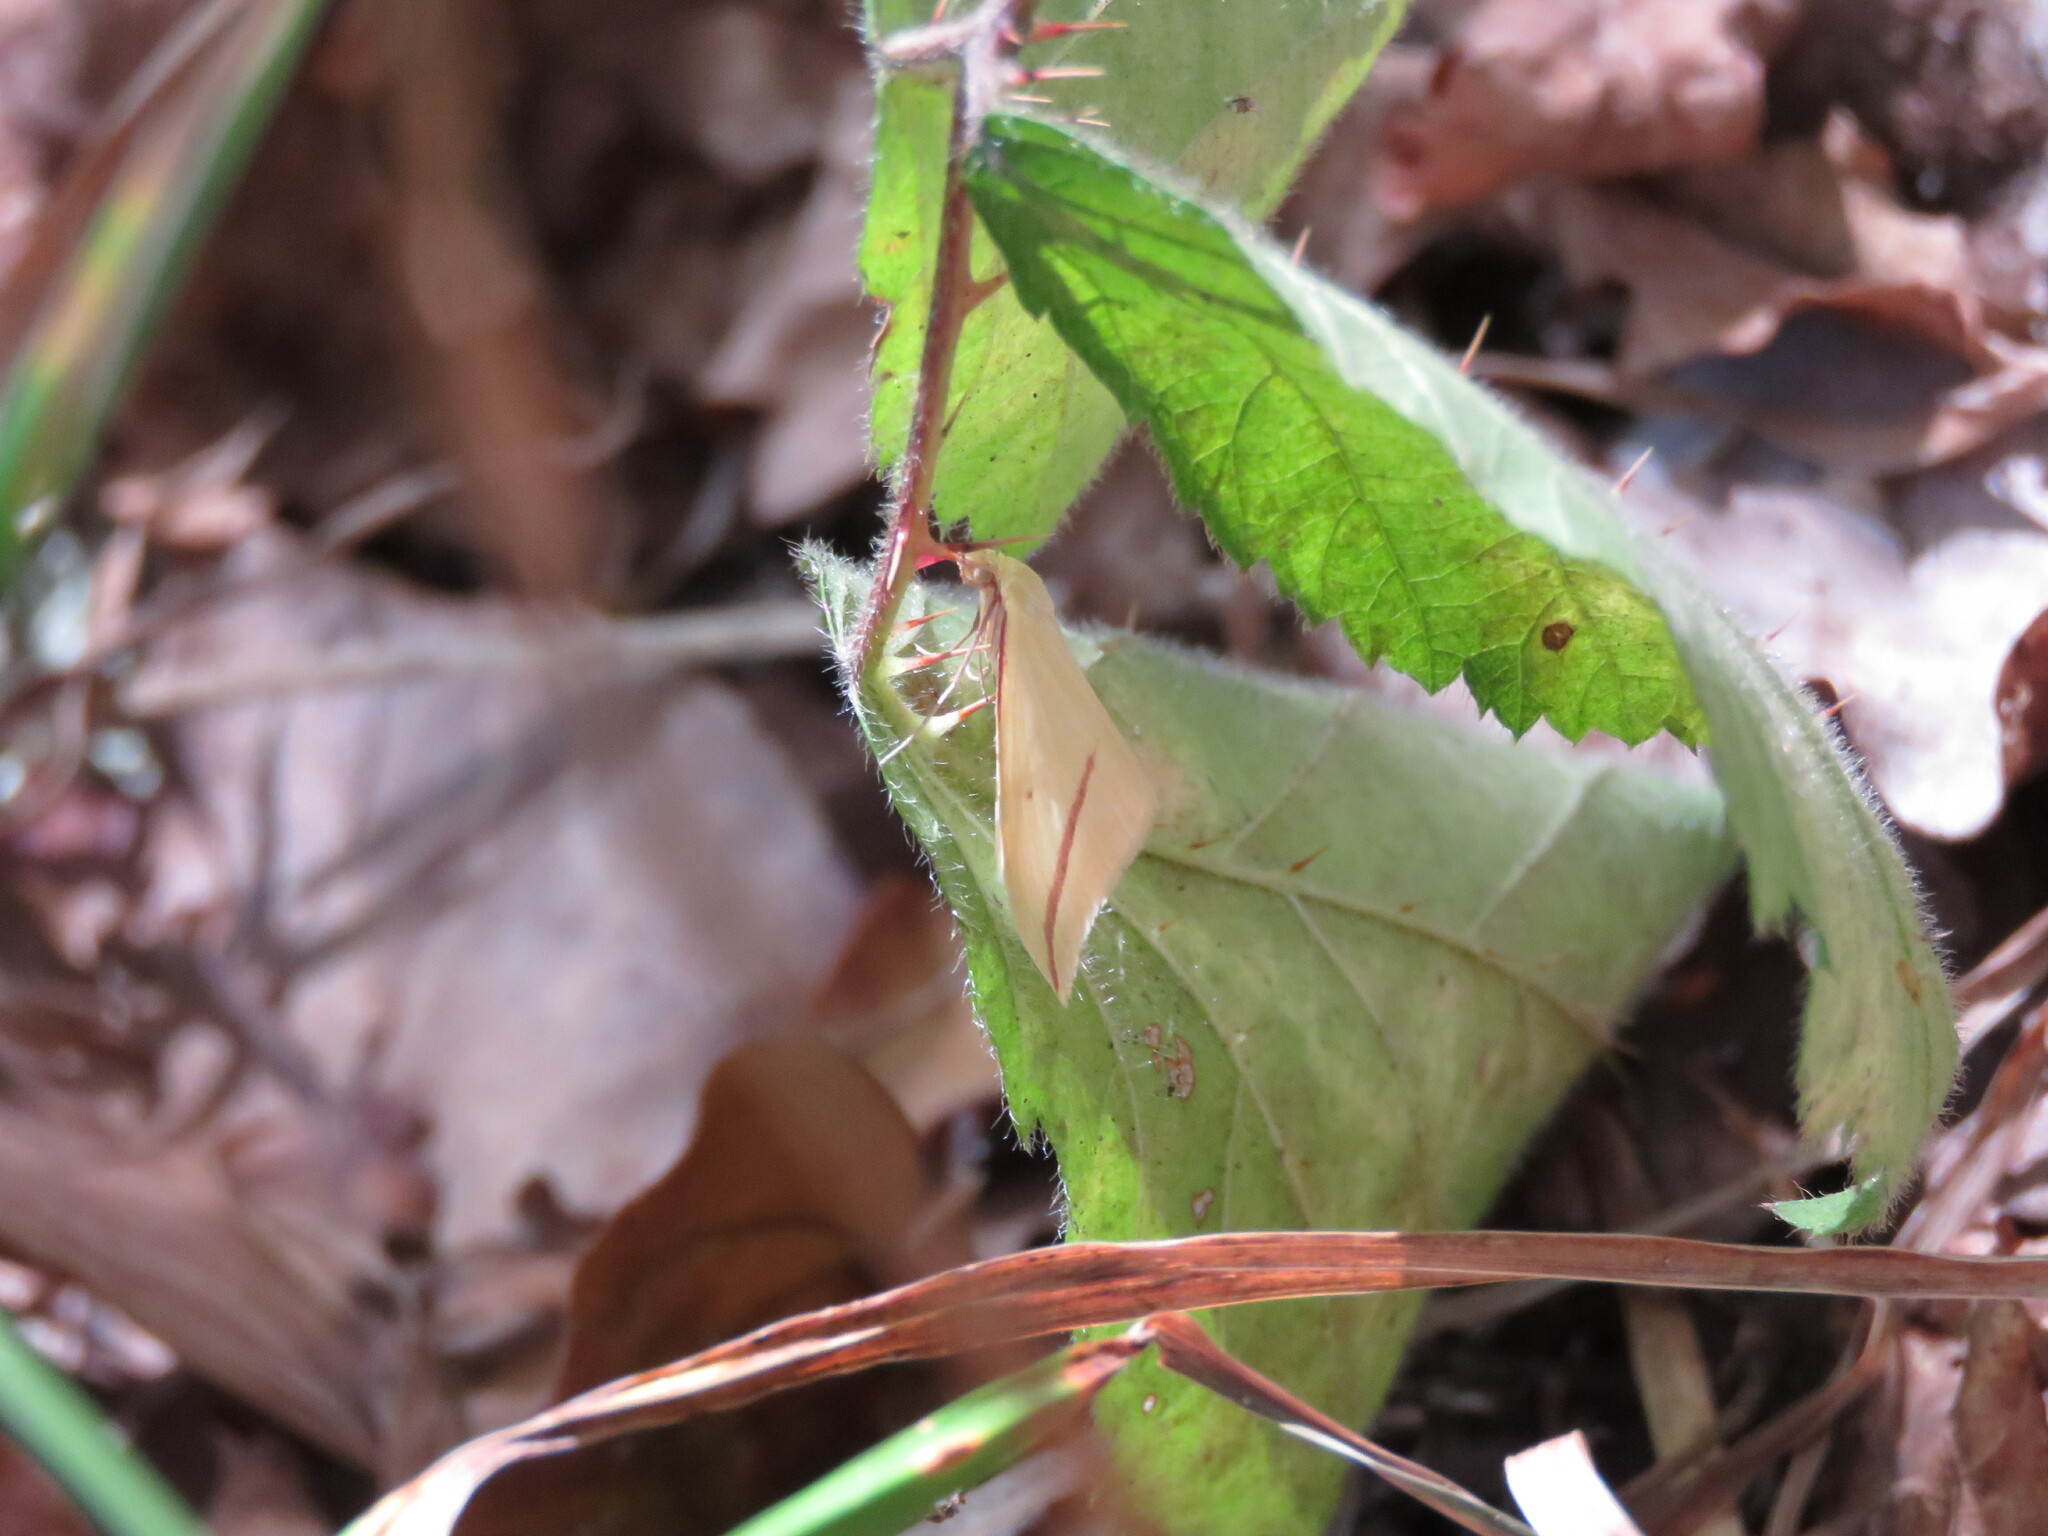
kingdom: Animalia
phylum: Arthropoda
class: Insecta
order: Lepidoptera
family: Geometridae
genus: Rhodometra
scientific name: Rhodometra sacraria
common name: Vestal
